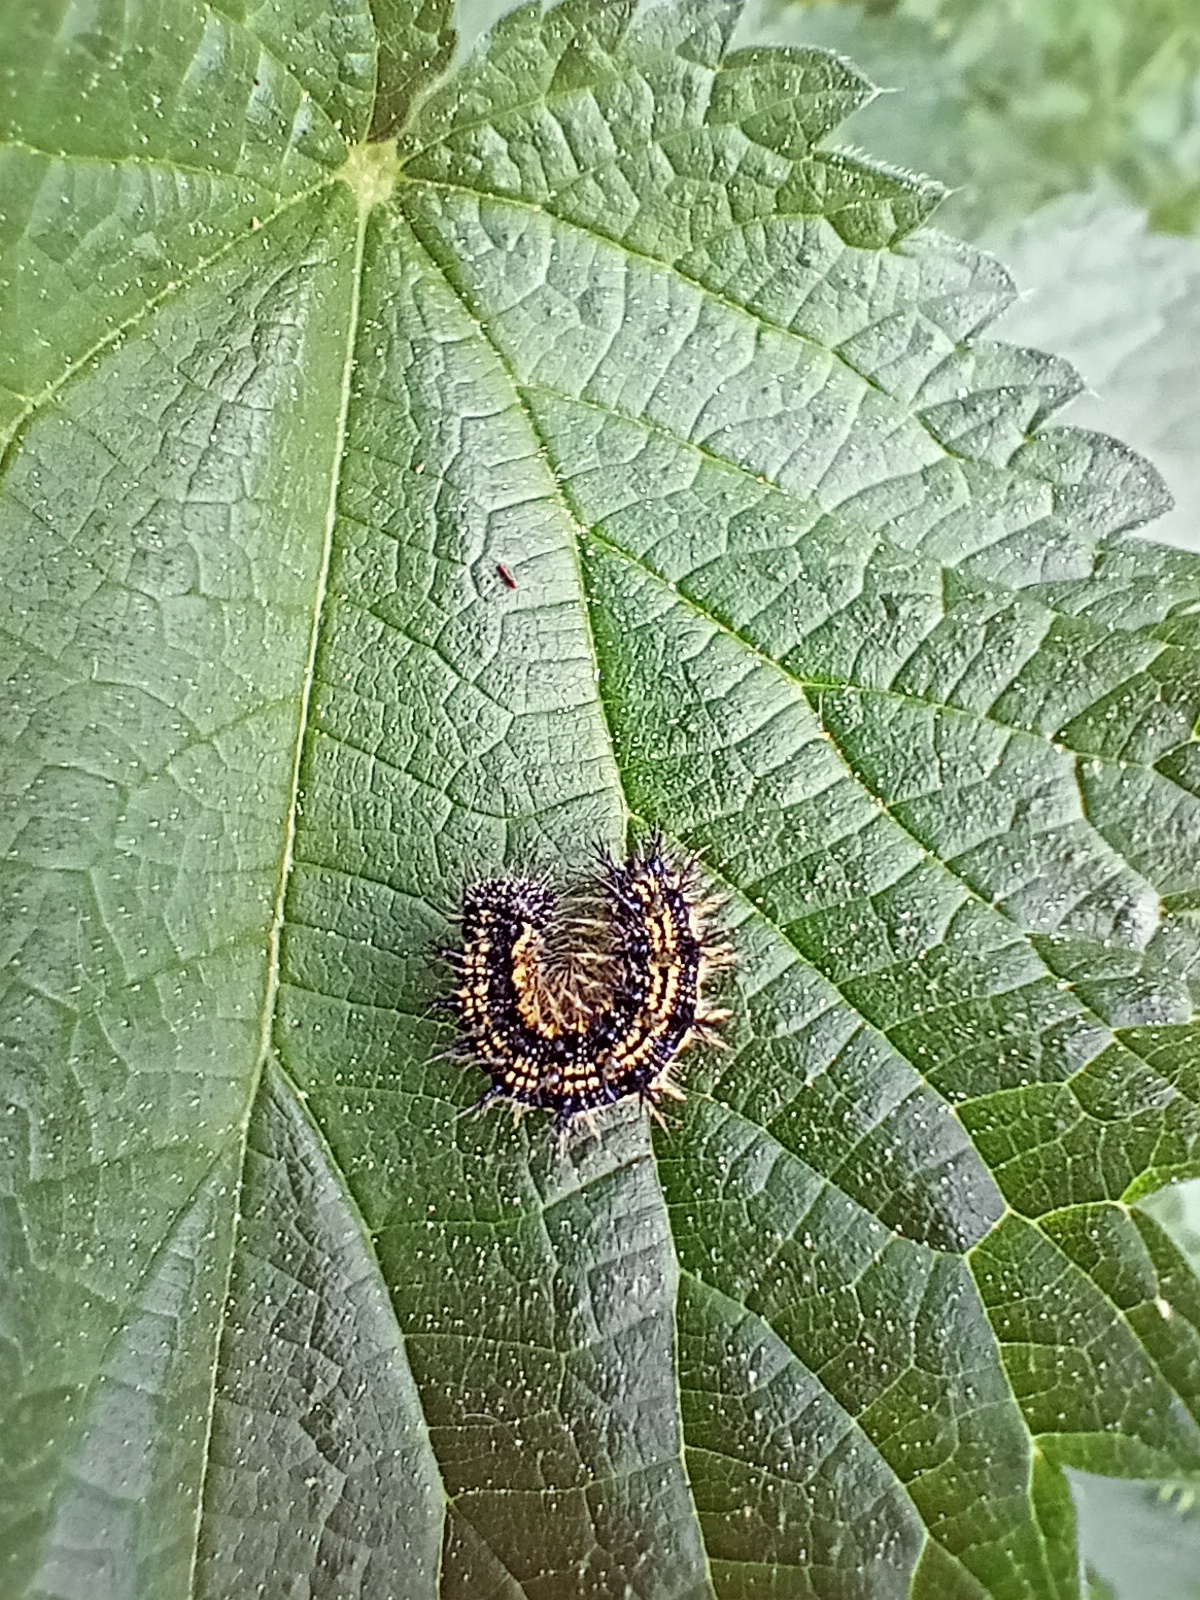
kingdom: Animalia
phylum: Arthropoda
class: Insecta
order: Lepidoptera
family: Nymphalidae
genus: Aglais
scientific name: Aglais urticae
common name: Small tortoiseshell
